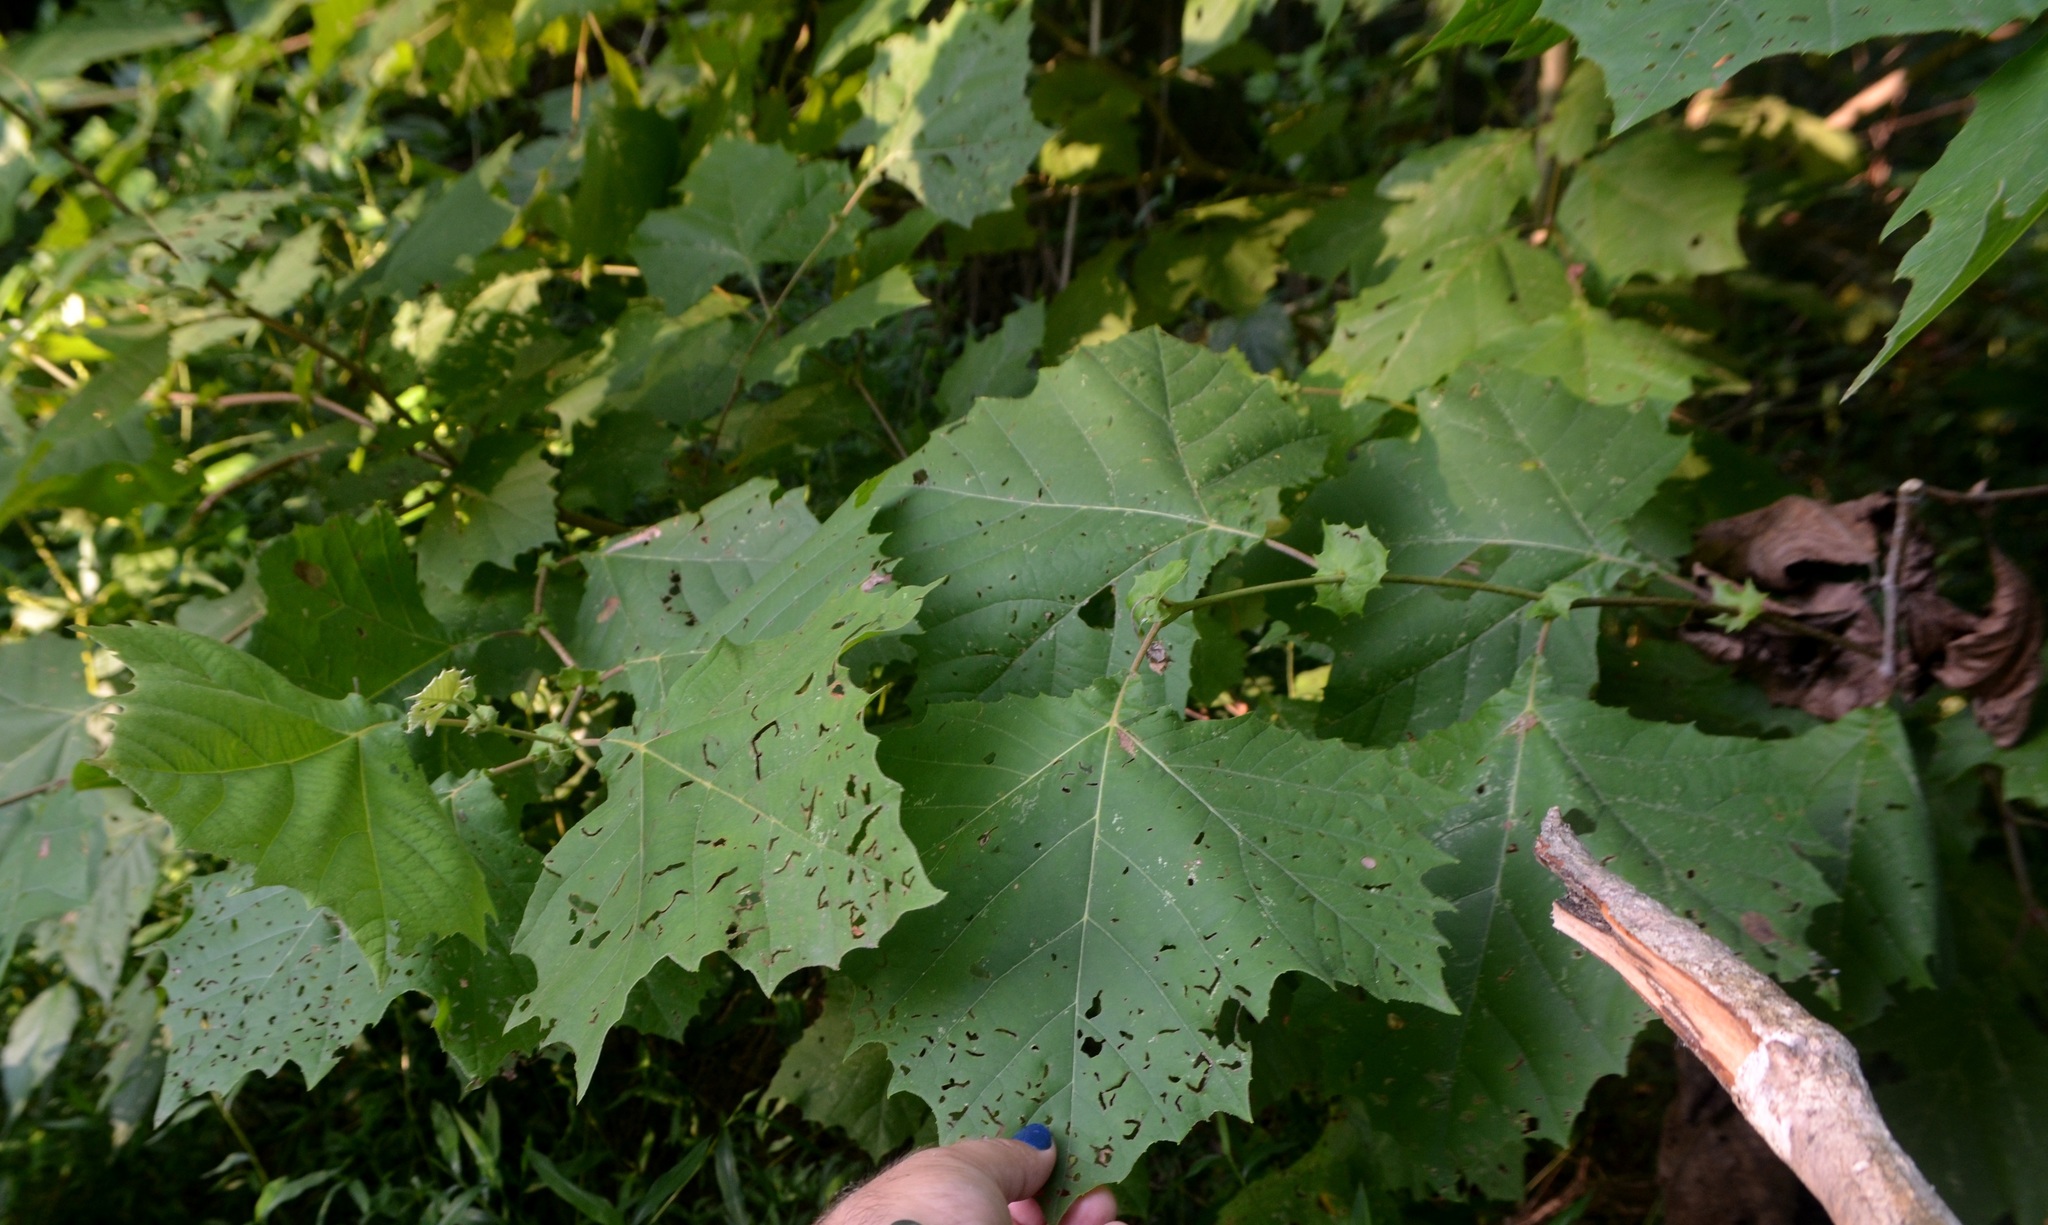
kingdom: Plantae
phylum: Tracheophyta
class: Magnoliopsida
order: Proteales
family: Platanaceae
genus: Platanus
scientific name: Platanus occidentalis
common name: American sycamore
